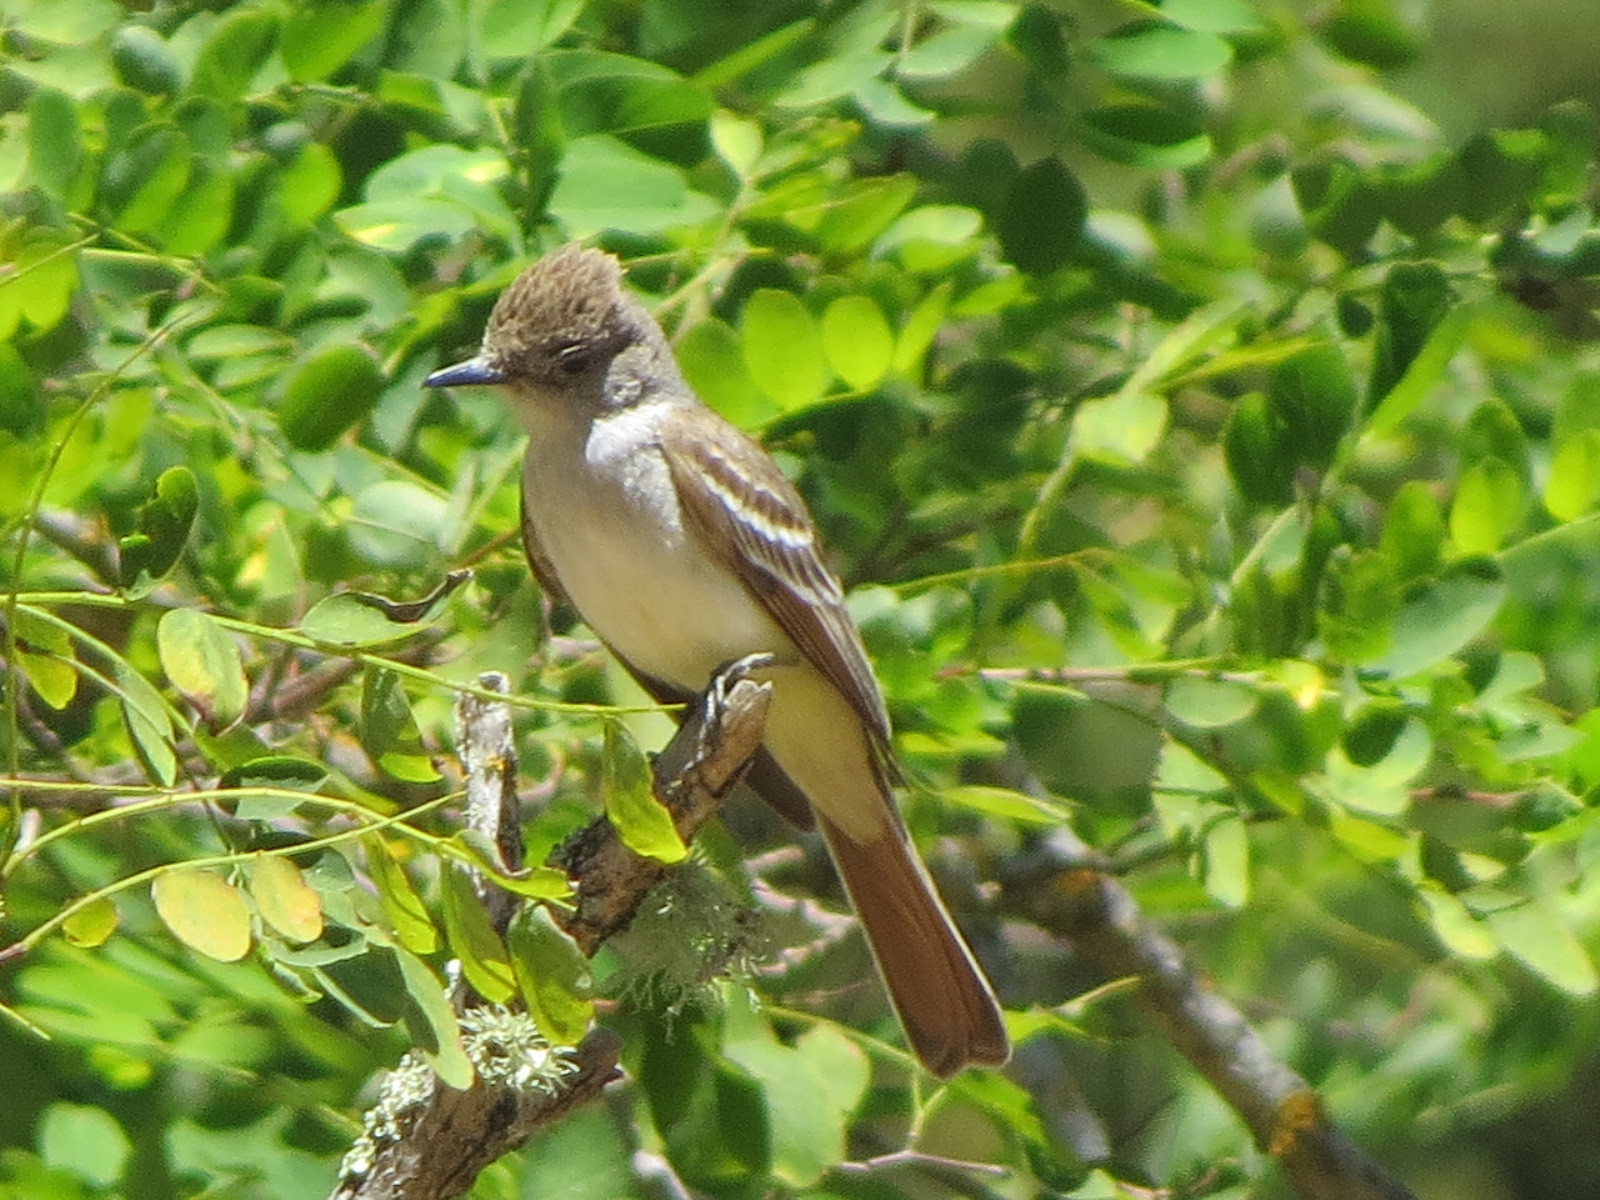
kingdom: Animalia
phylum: Chordata
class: Aves
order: Passeriformes
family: Tyrannidae
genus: Myiarchus
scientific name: Myiarchus cinerascens
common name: Ash-throated flycatcher
